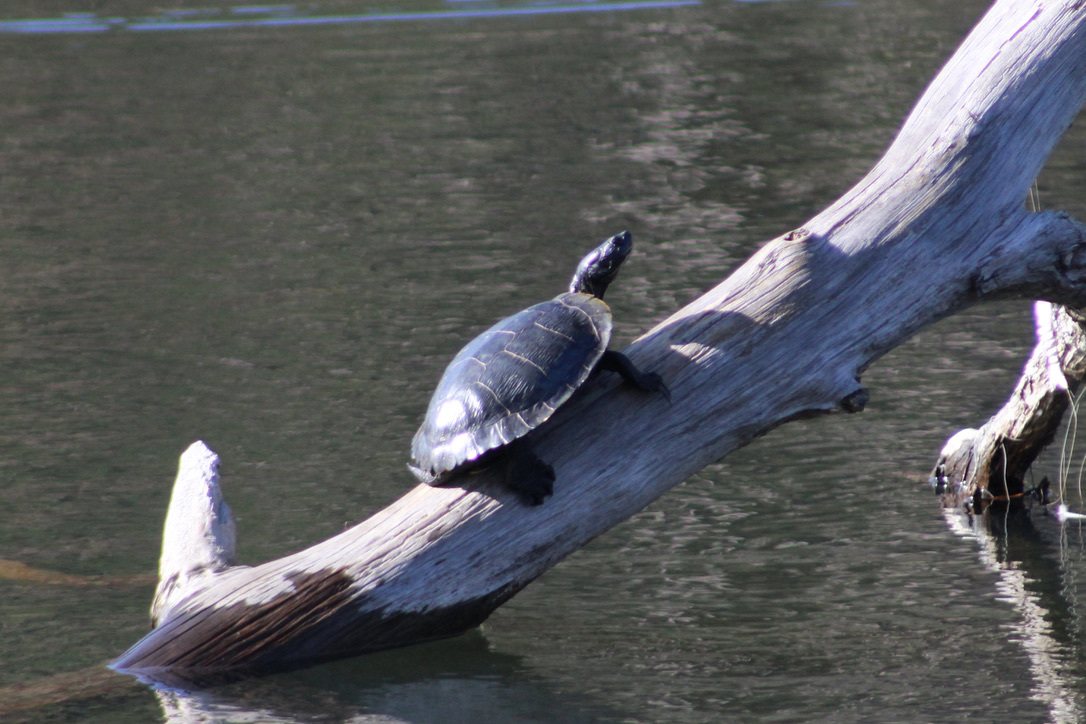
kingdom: Animalia
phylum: Chordata
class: Testudines
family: Emydidae
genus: Trachemys
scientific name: Trachemys scripta
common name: Slider
